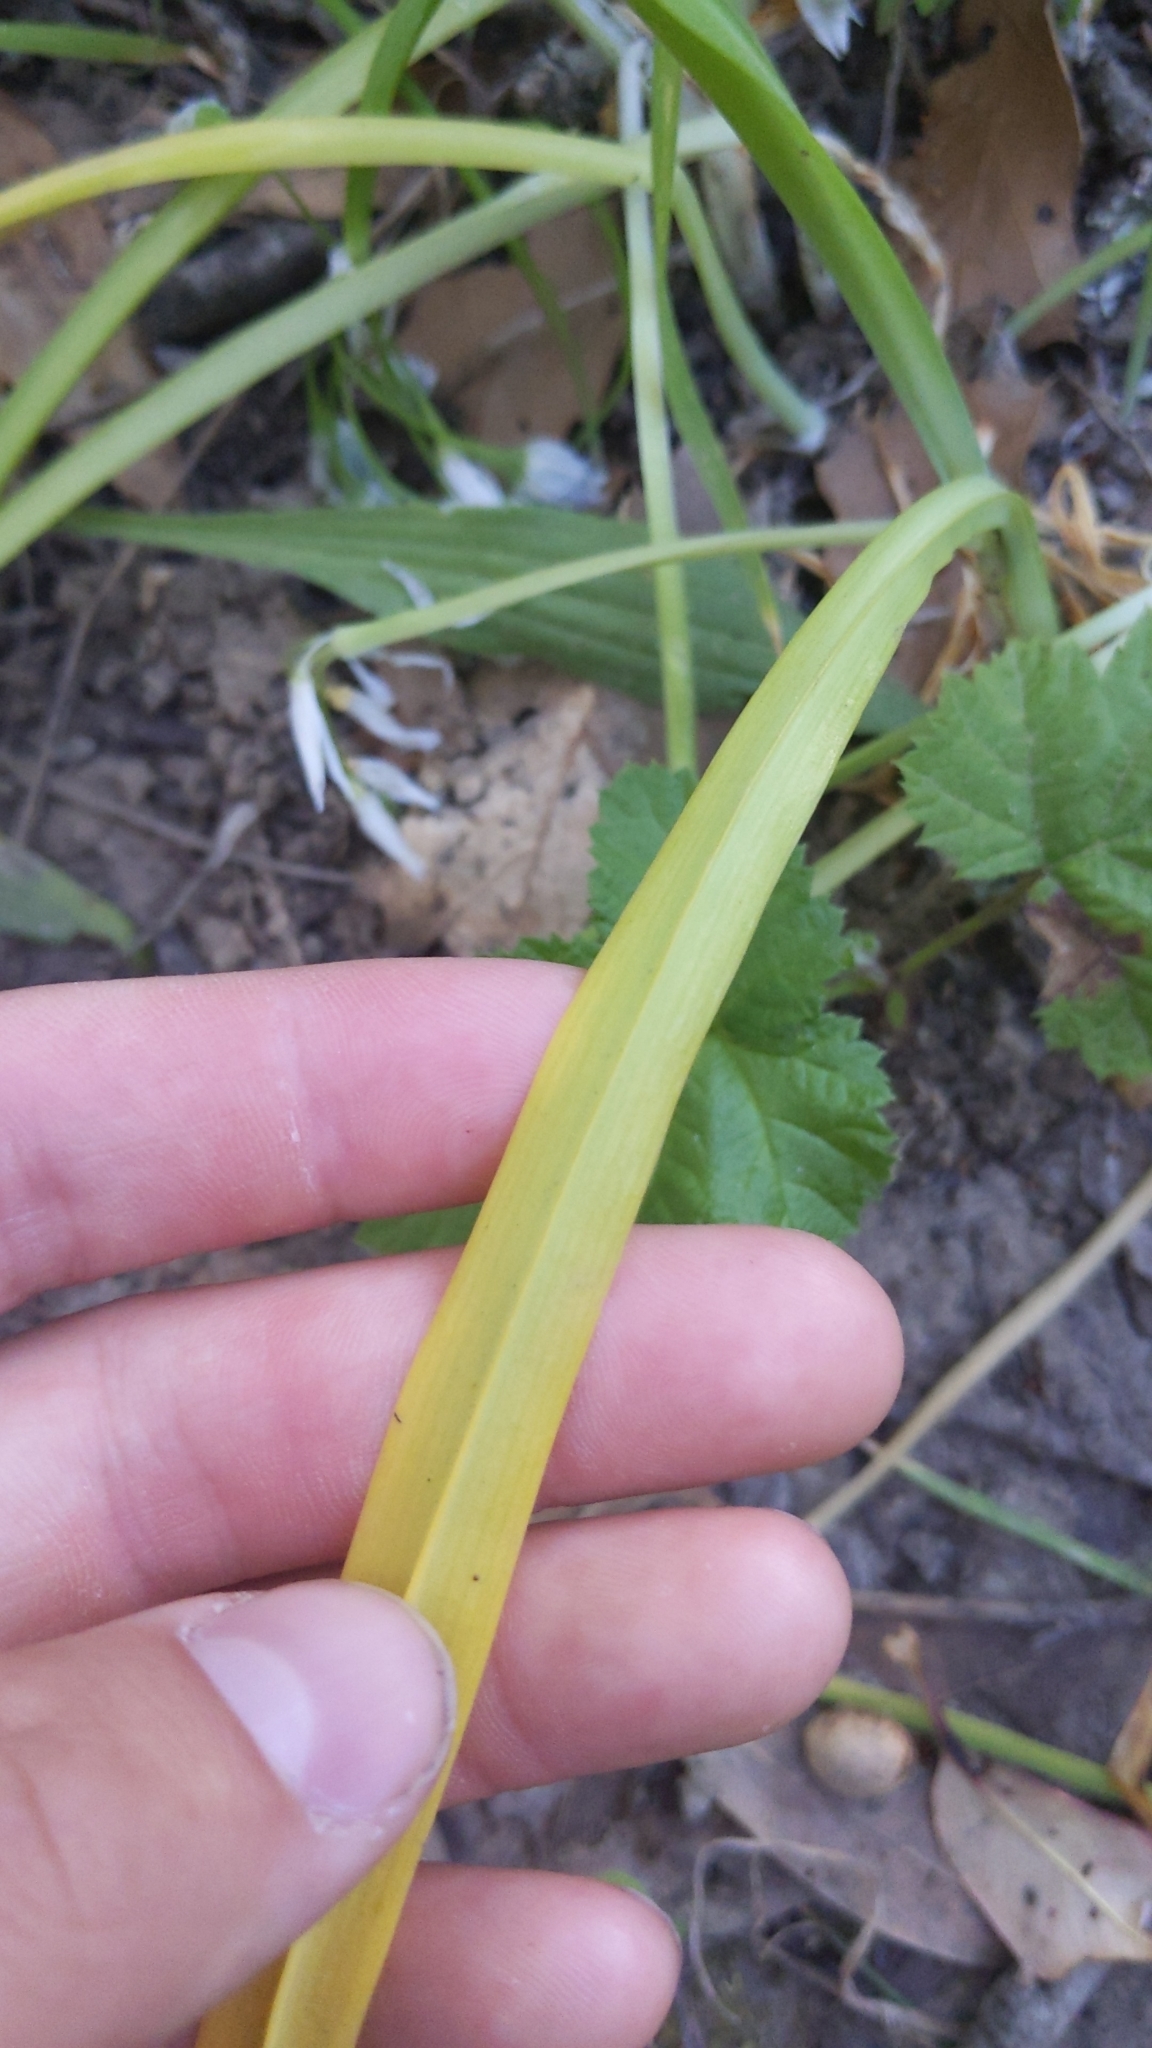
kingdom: Plantae
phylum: Tracheophyta
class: Liliopsida
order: Asparagales
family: Amaryllidaceae
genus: Allium
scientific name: Allium triquetrum
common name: Three-cornered garlic
